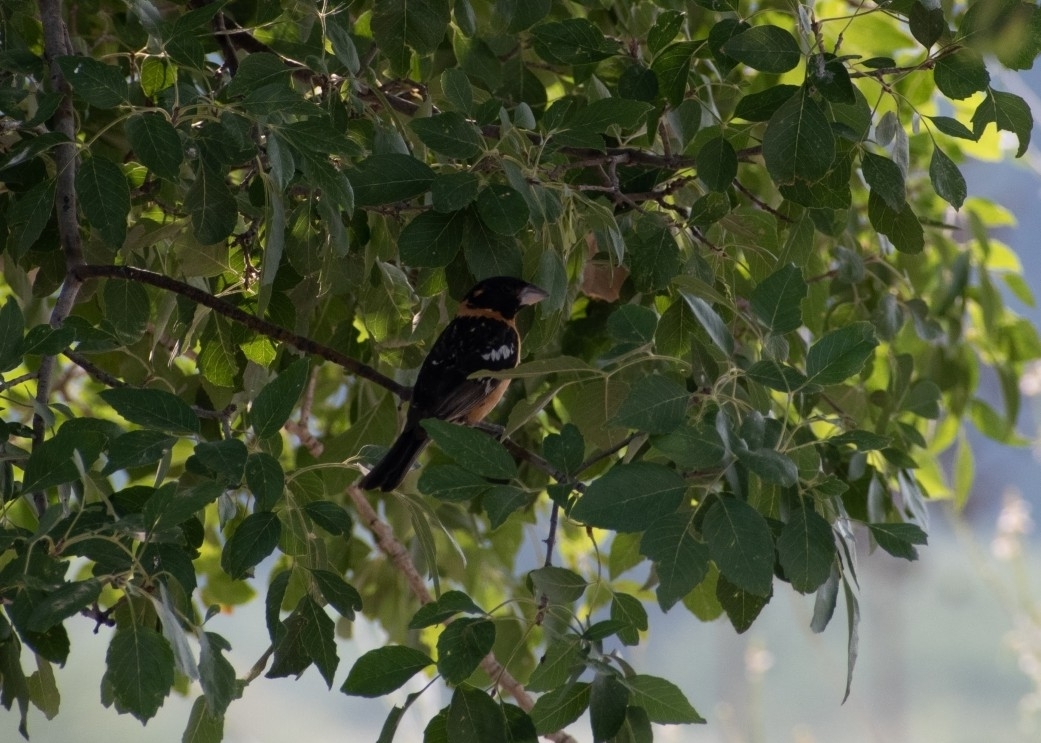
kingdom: Animalia
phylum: Chordata
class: Aves
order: Passeriformes
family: Cardinalidae
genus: Pheucticus
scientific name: Pheucticus melanocephalus
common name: Black-headed grosbeak
